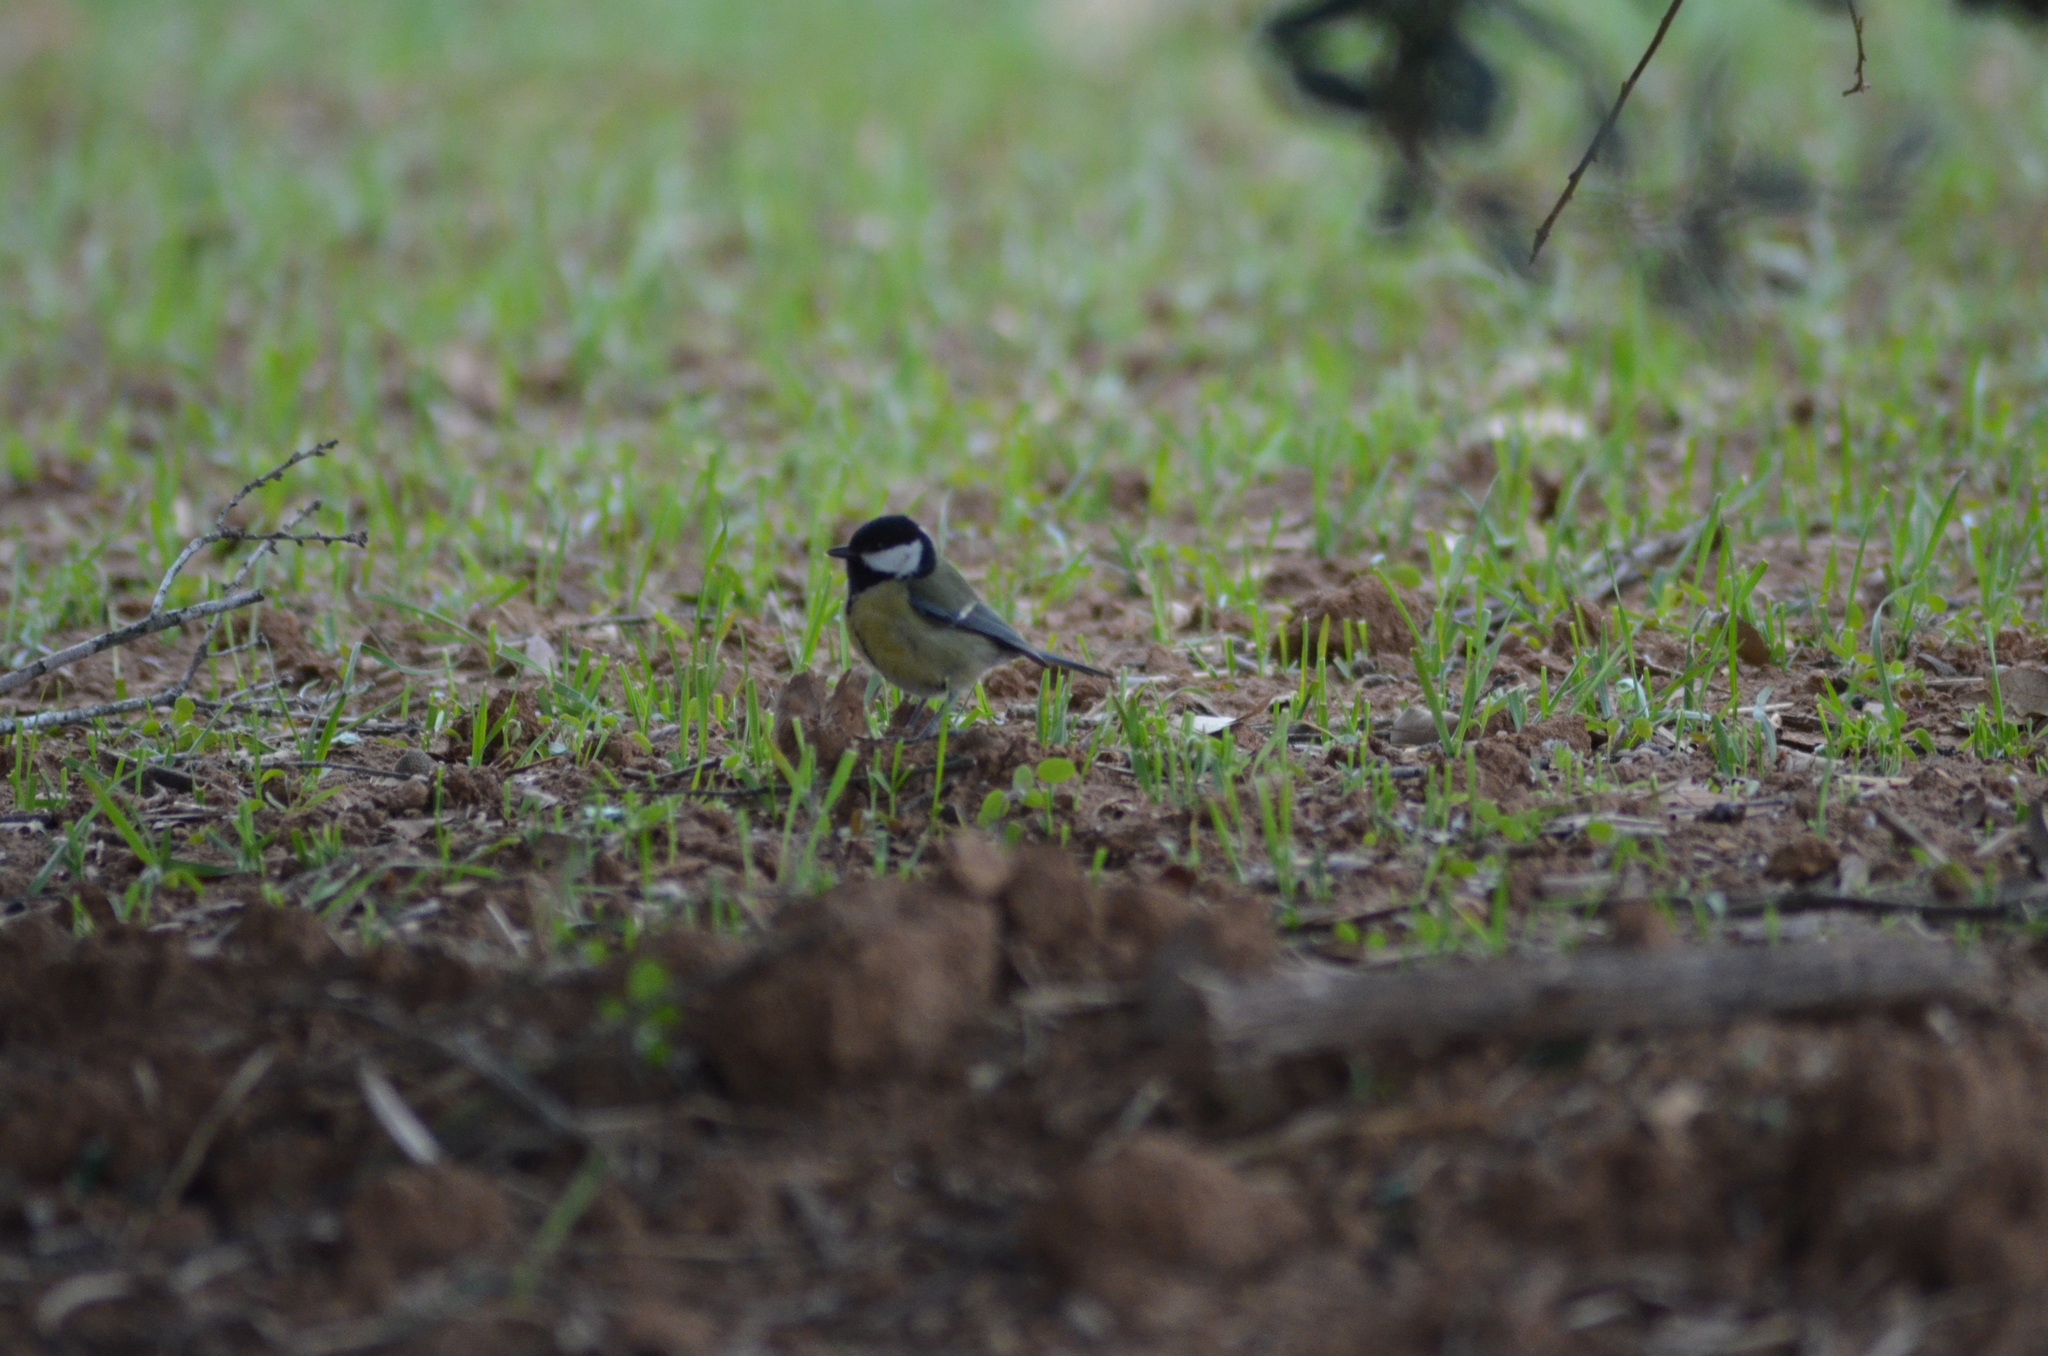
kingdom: Animalia
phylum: Chordata
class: Aves
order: Passeriformes
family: Paridae
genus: Parus
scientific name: Parus major
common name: Great tit
